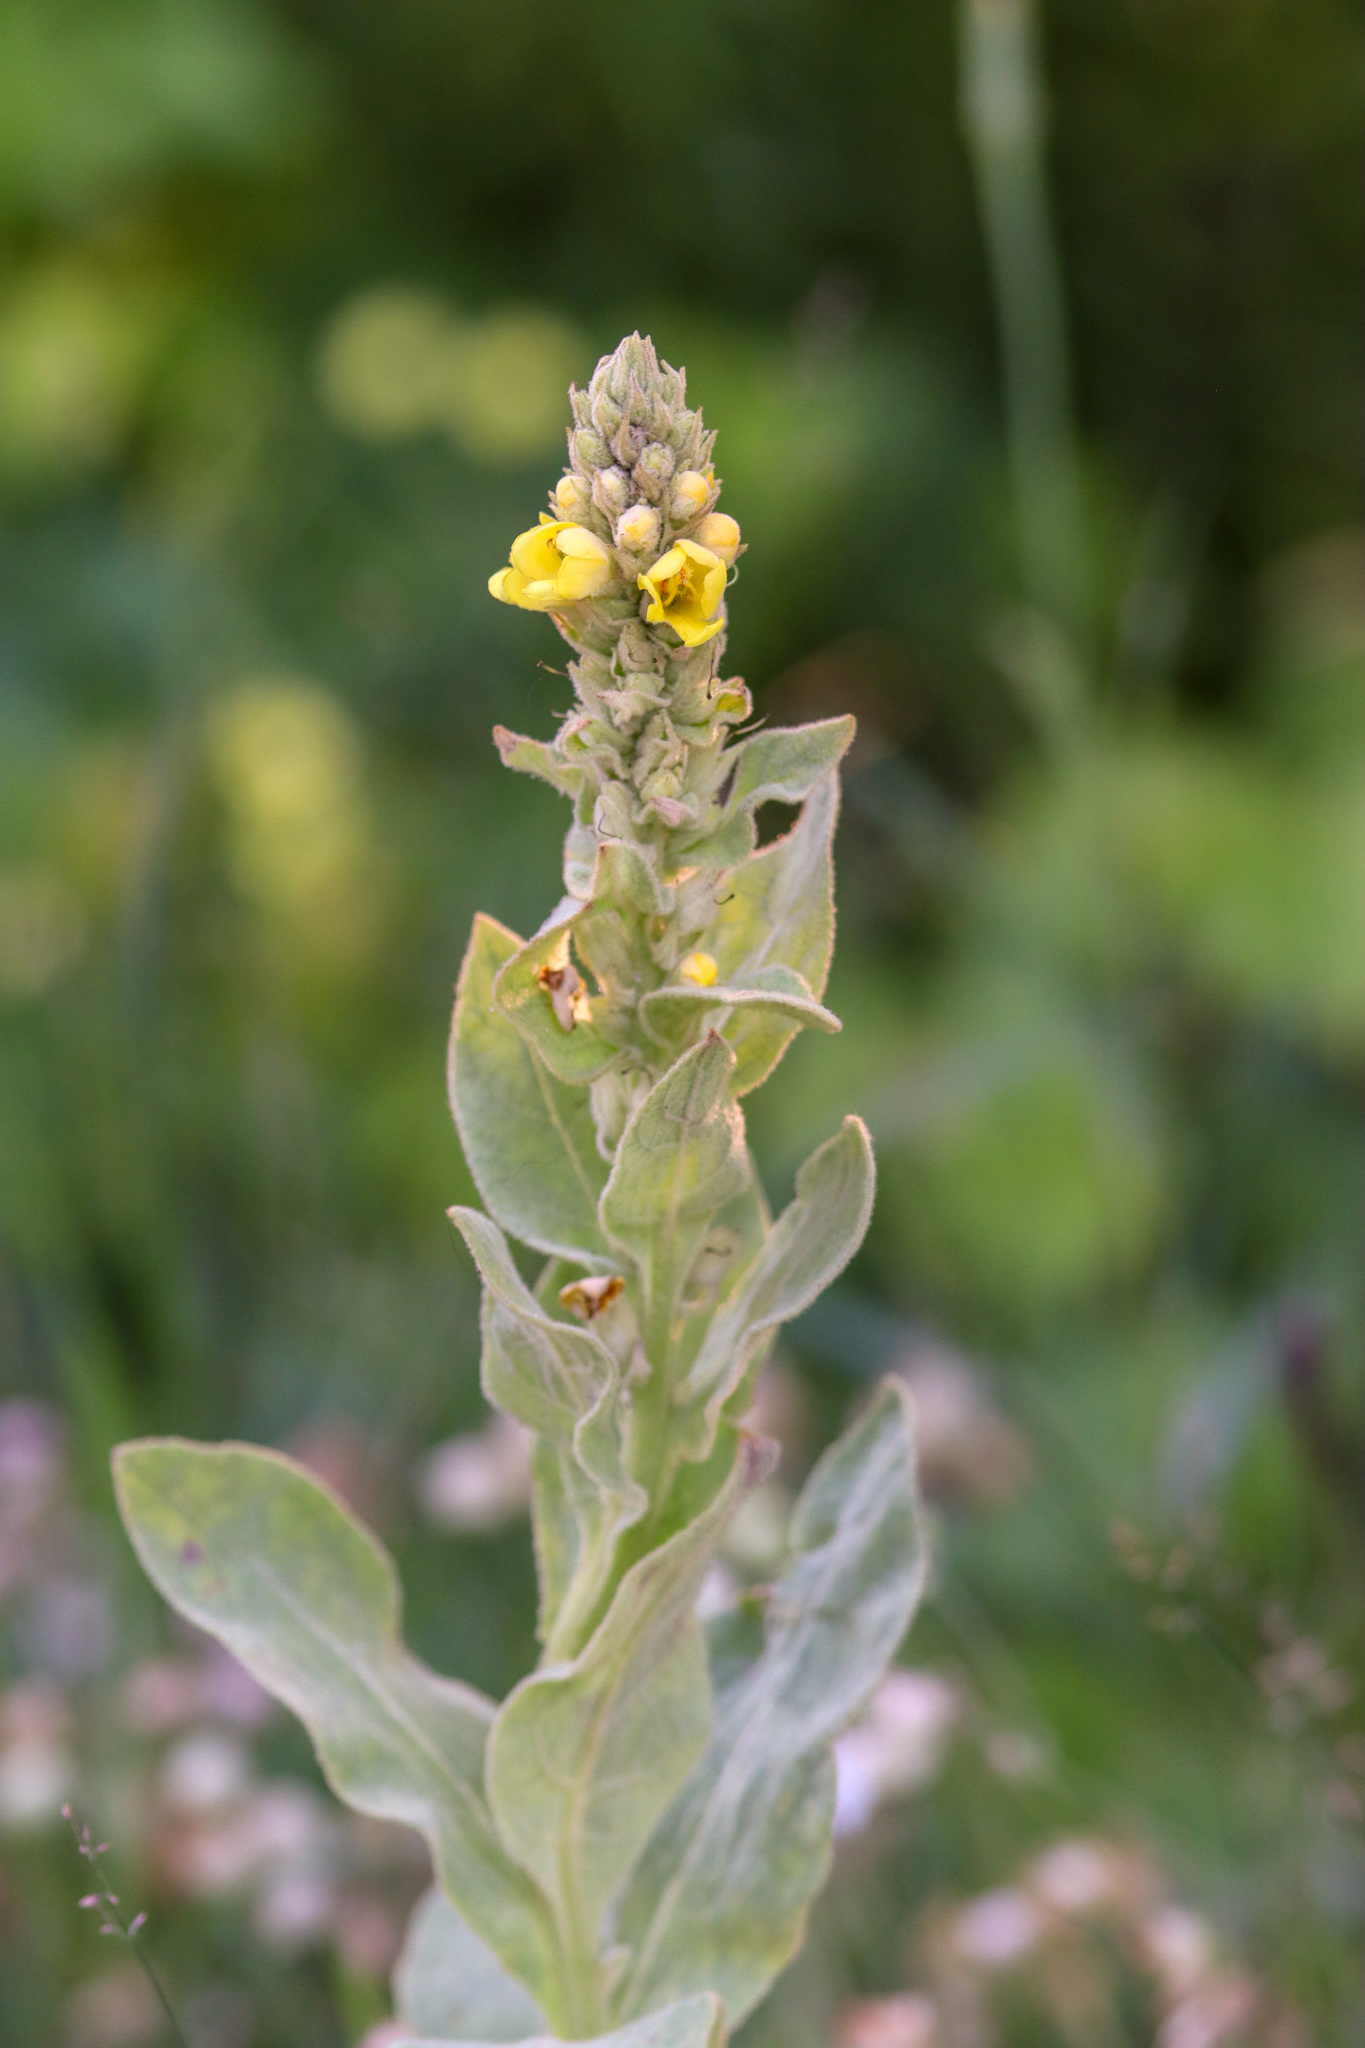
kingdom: Plantae
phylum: Tracheophyta
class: Magnoliopsida
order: Lamiales
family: Scrophulariaceae
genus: Verbascum
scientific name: Verbascum thapsus
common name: Common mullein
